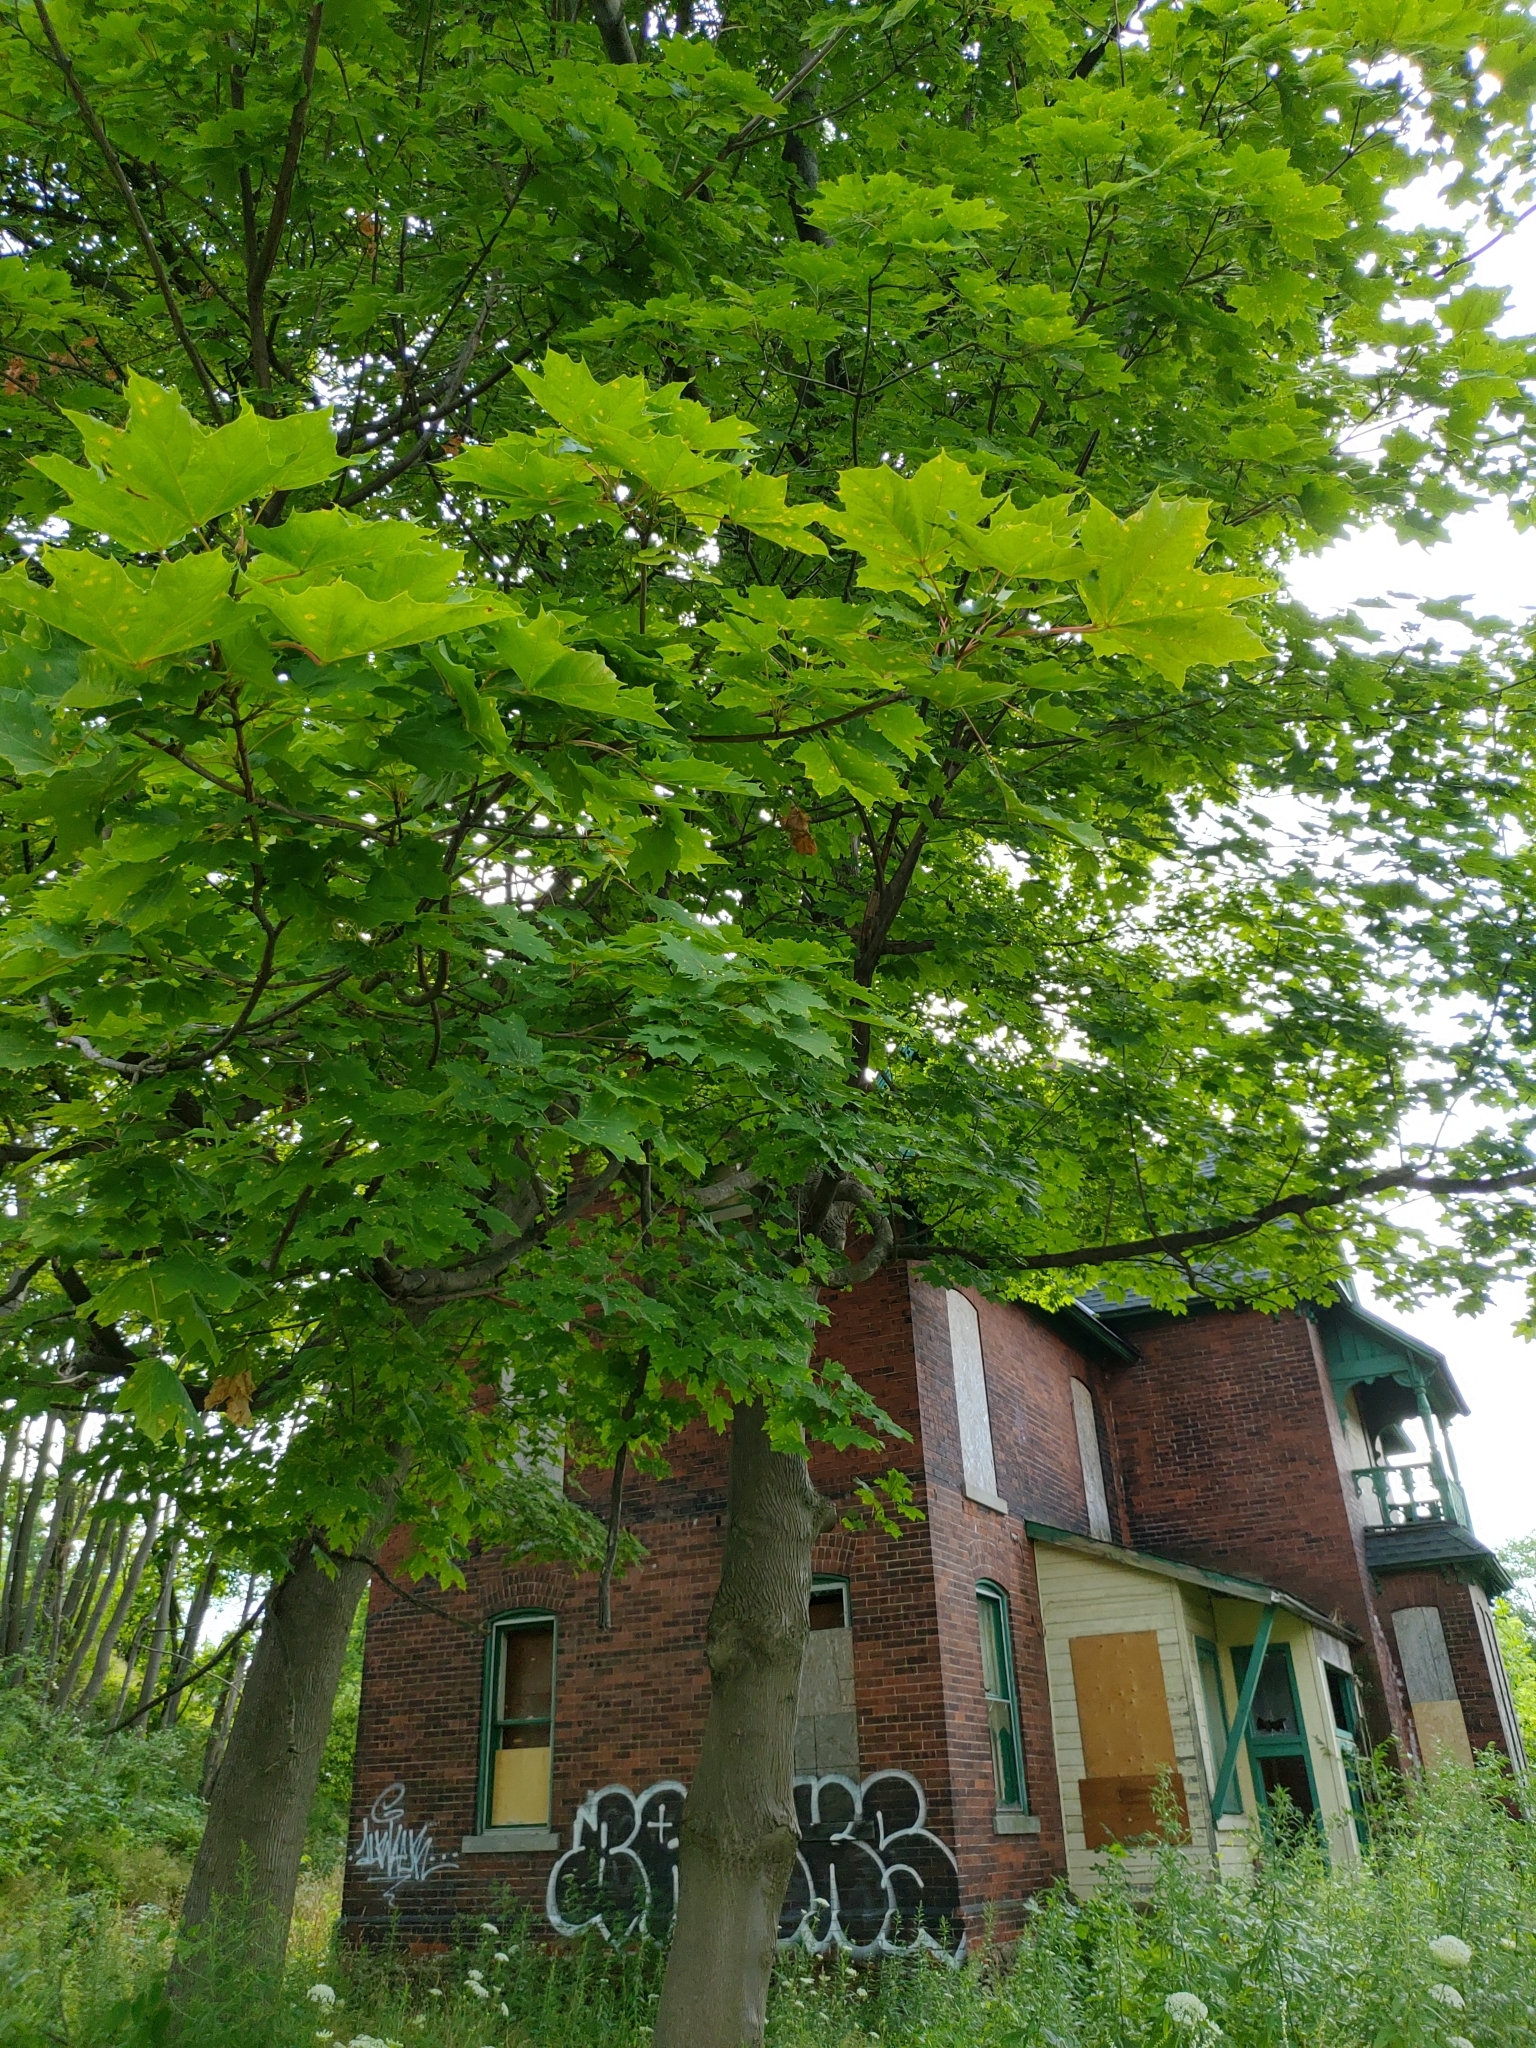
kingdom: Plantae
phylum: Tracheophyta
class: Magnoliopsida
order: Sapindales
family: Sapindaceae
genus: Acer
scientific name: Acer platanoides
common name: Norway maple
